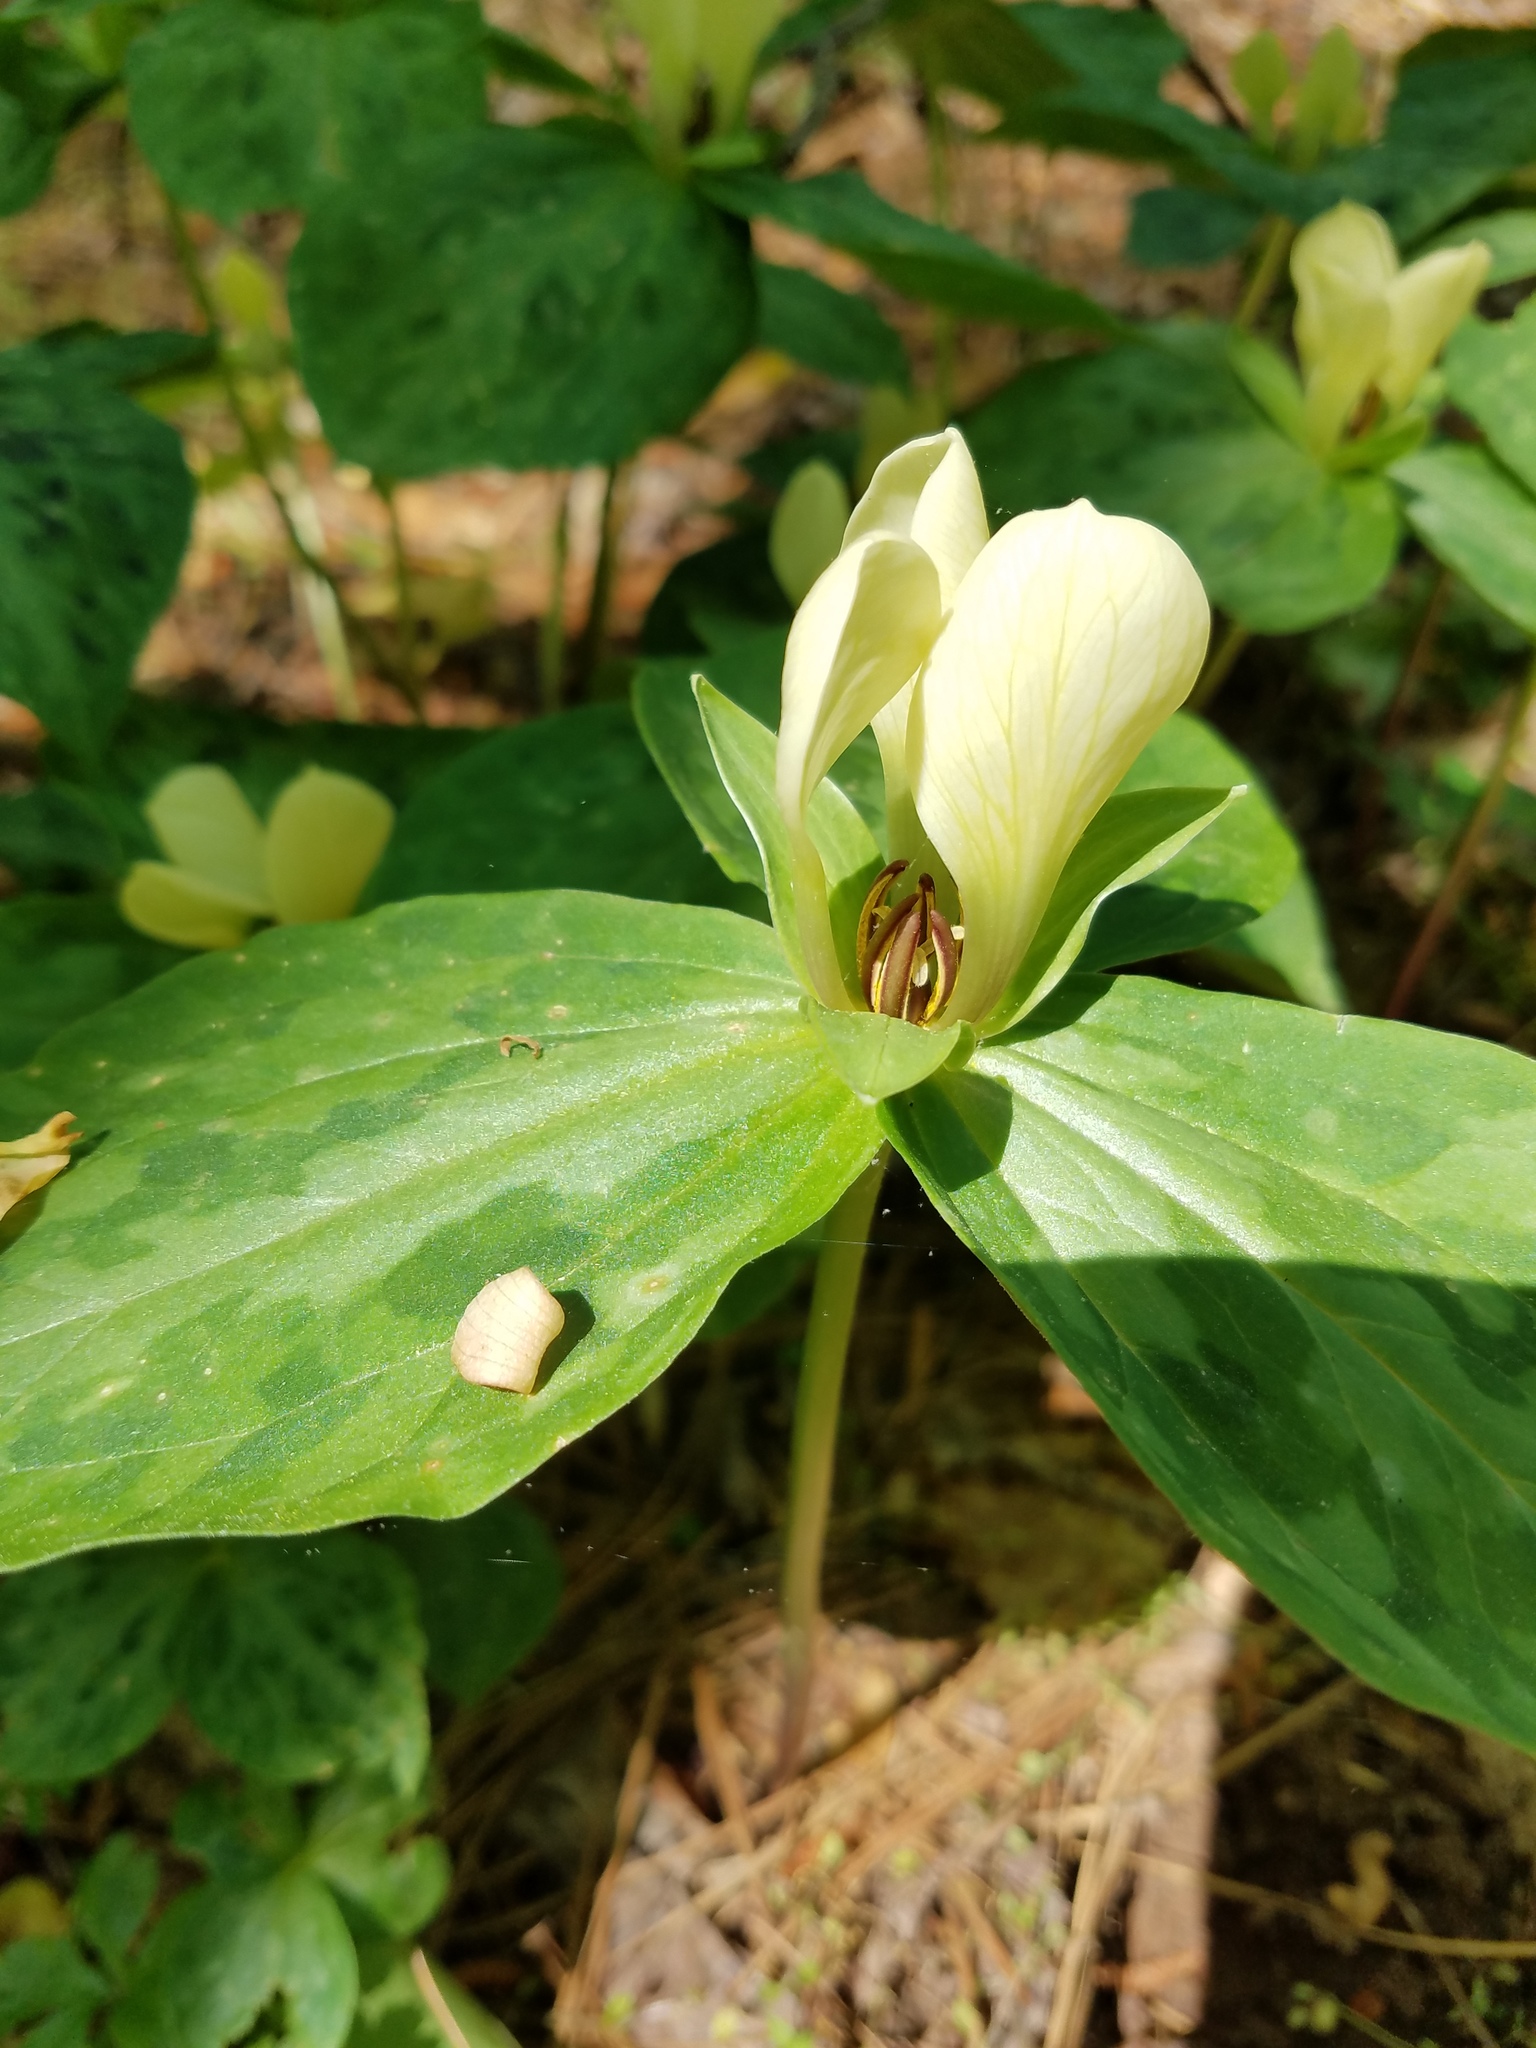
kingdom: Plantae
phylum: Tracheophyta
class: Liliopsida
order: Liliales
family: Melanthiaceae
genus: Trillium
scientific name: Trillium discolor
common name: Faded trillium
